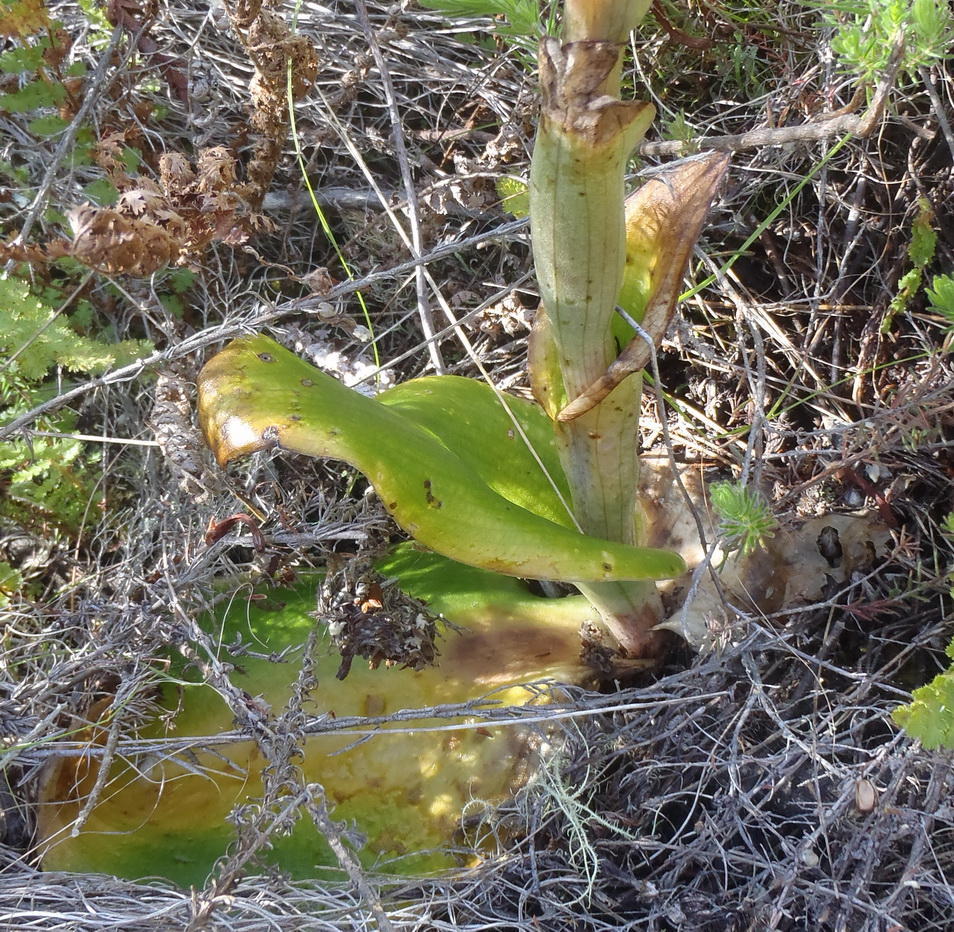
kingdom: Plantae
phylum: Tracheophyta
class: Liliopsida
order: Asparagales
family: Orchidaceae
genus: Satyrium
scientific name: Satyrium longicolle
